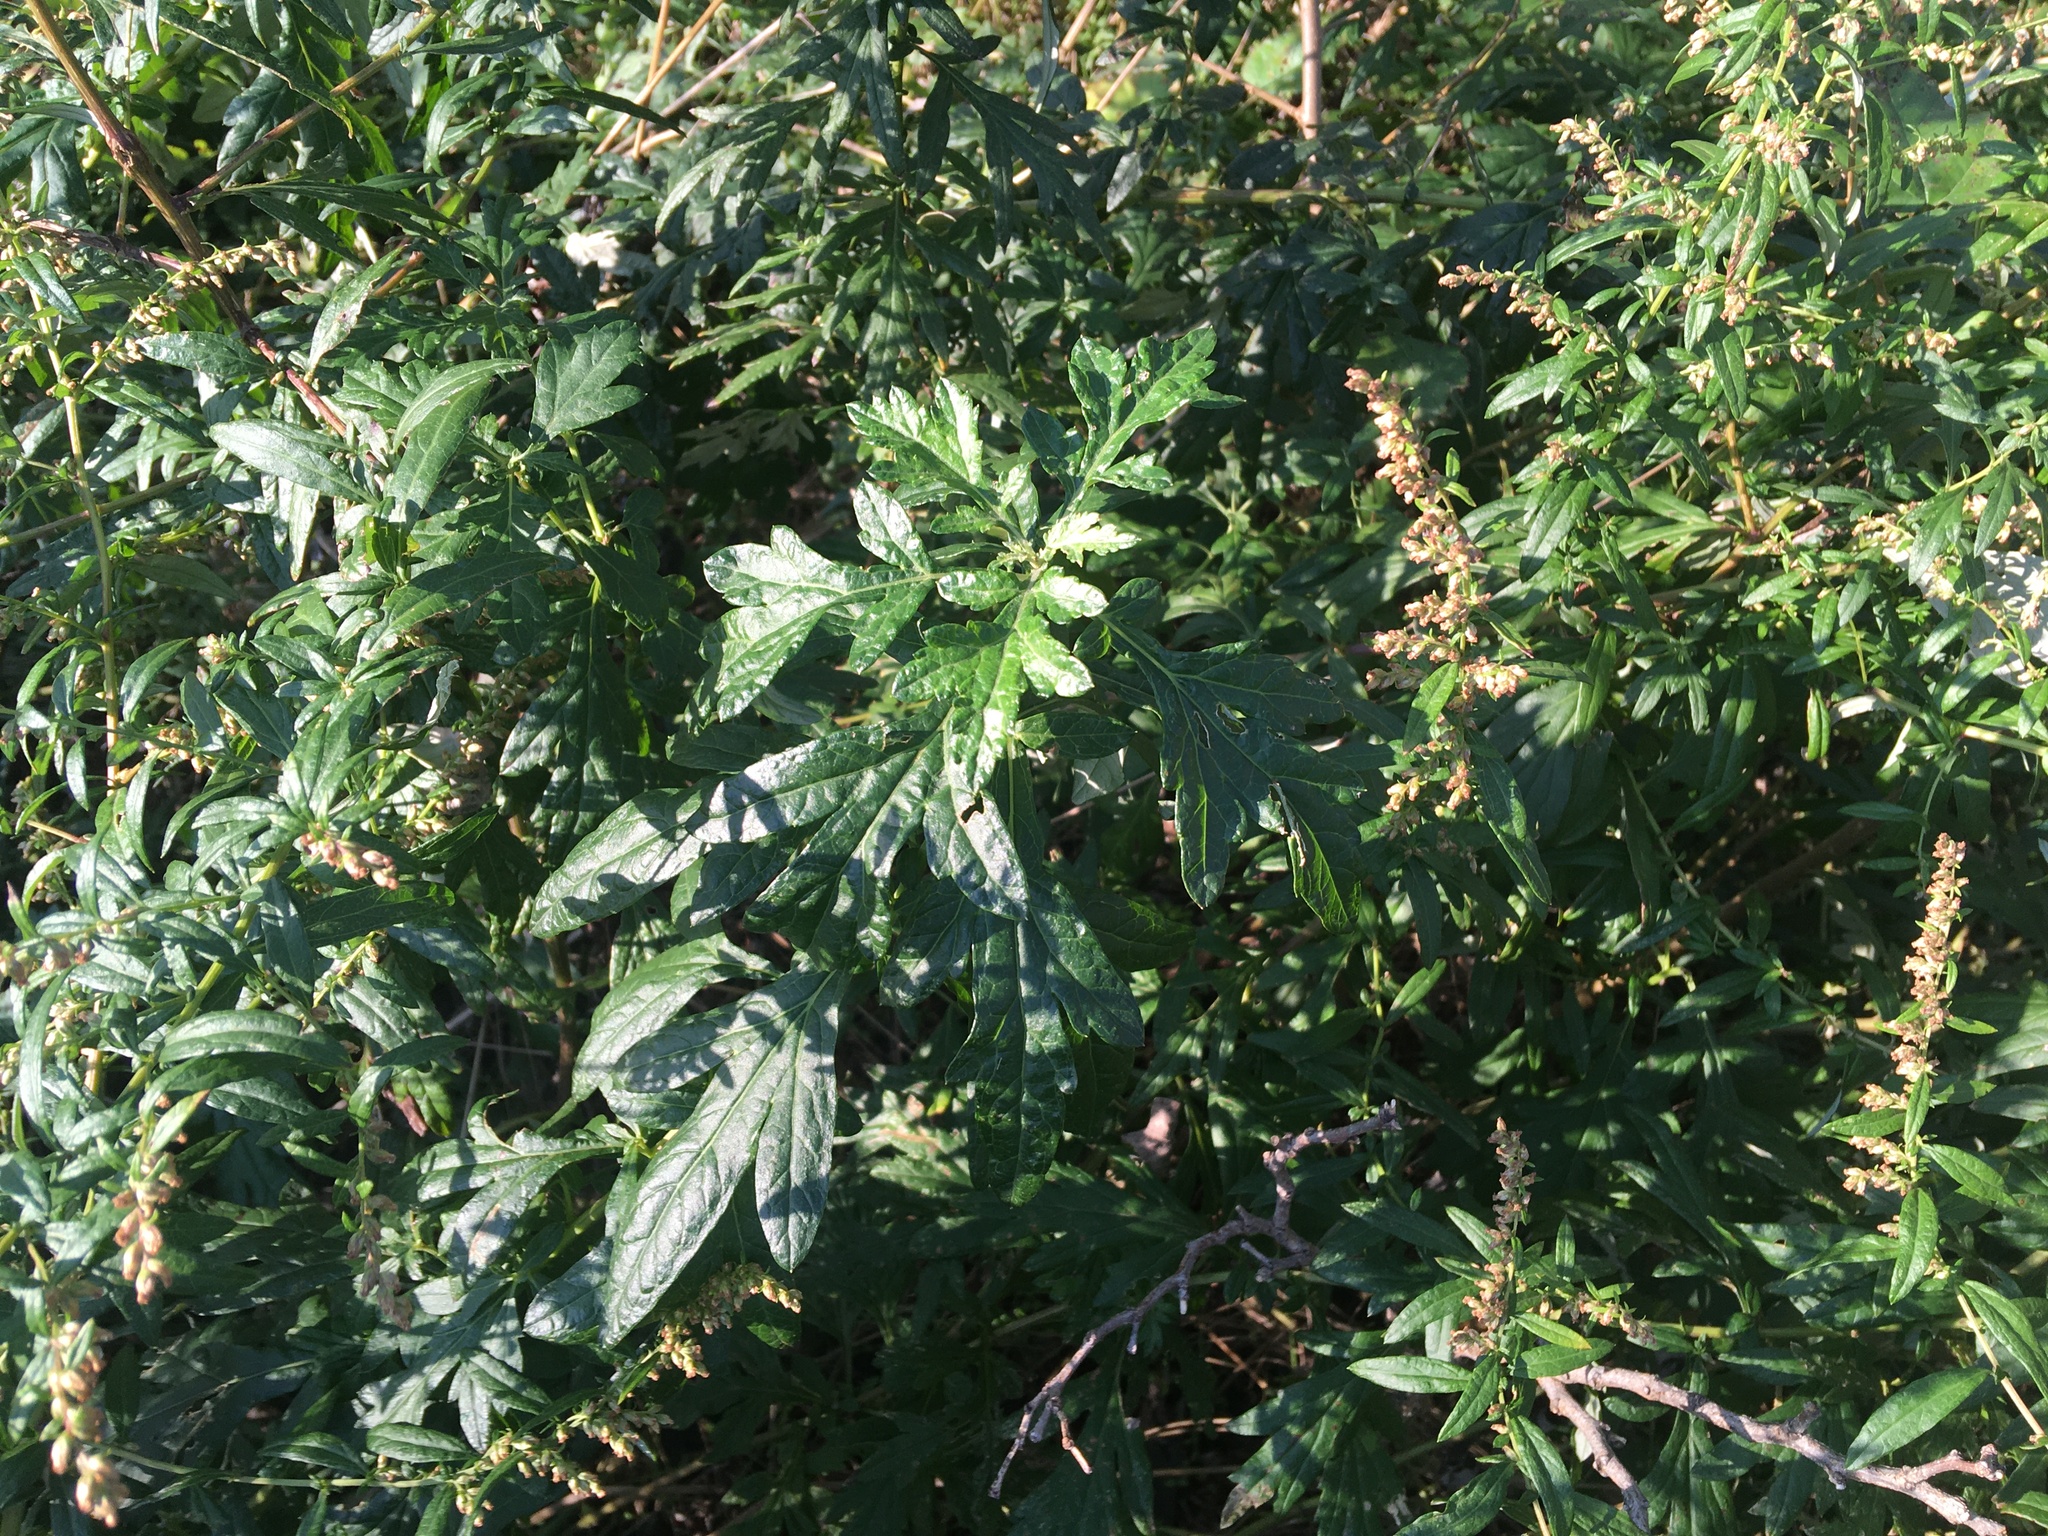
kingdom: Plantae
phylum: Tracheophyta
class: Magnoliopsida
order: Asterales
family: Asteraceae
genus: Artemisia
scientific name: Artemisia vulgaris
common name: Mugwort
